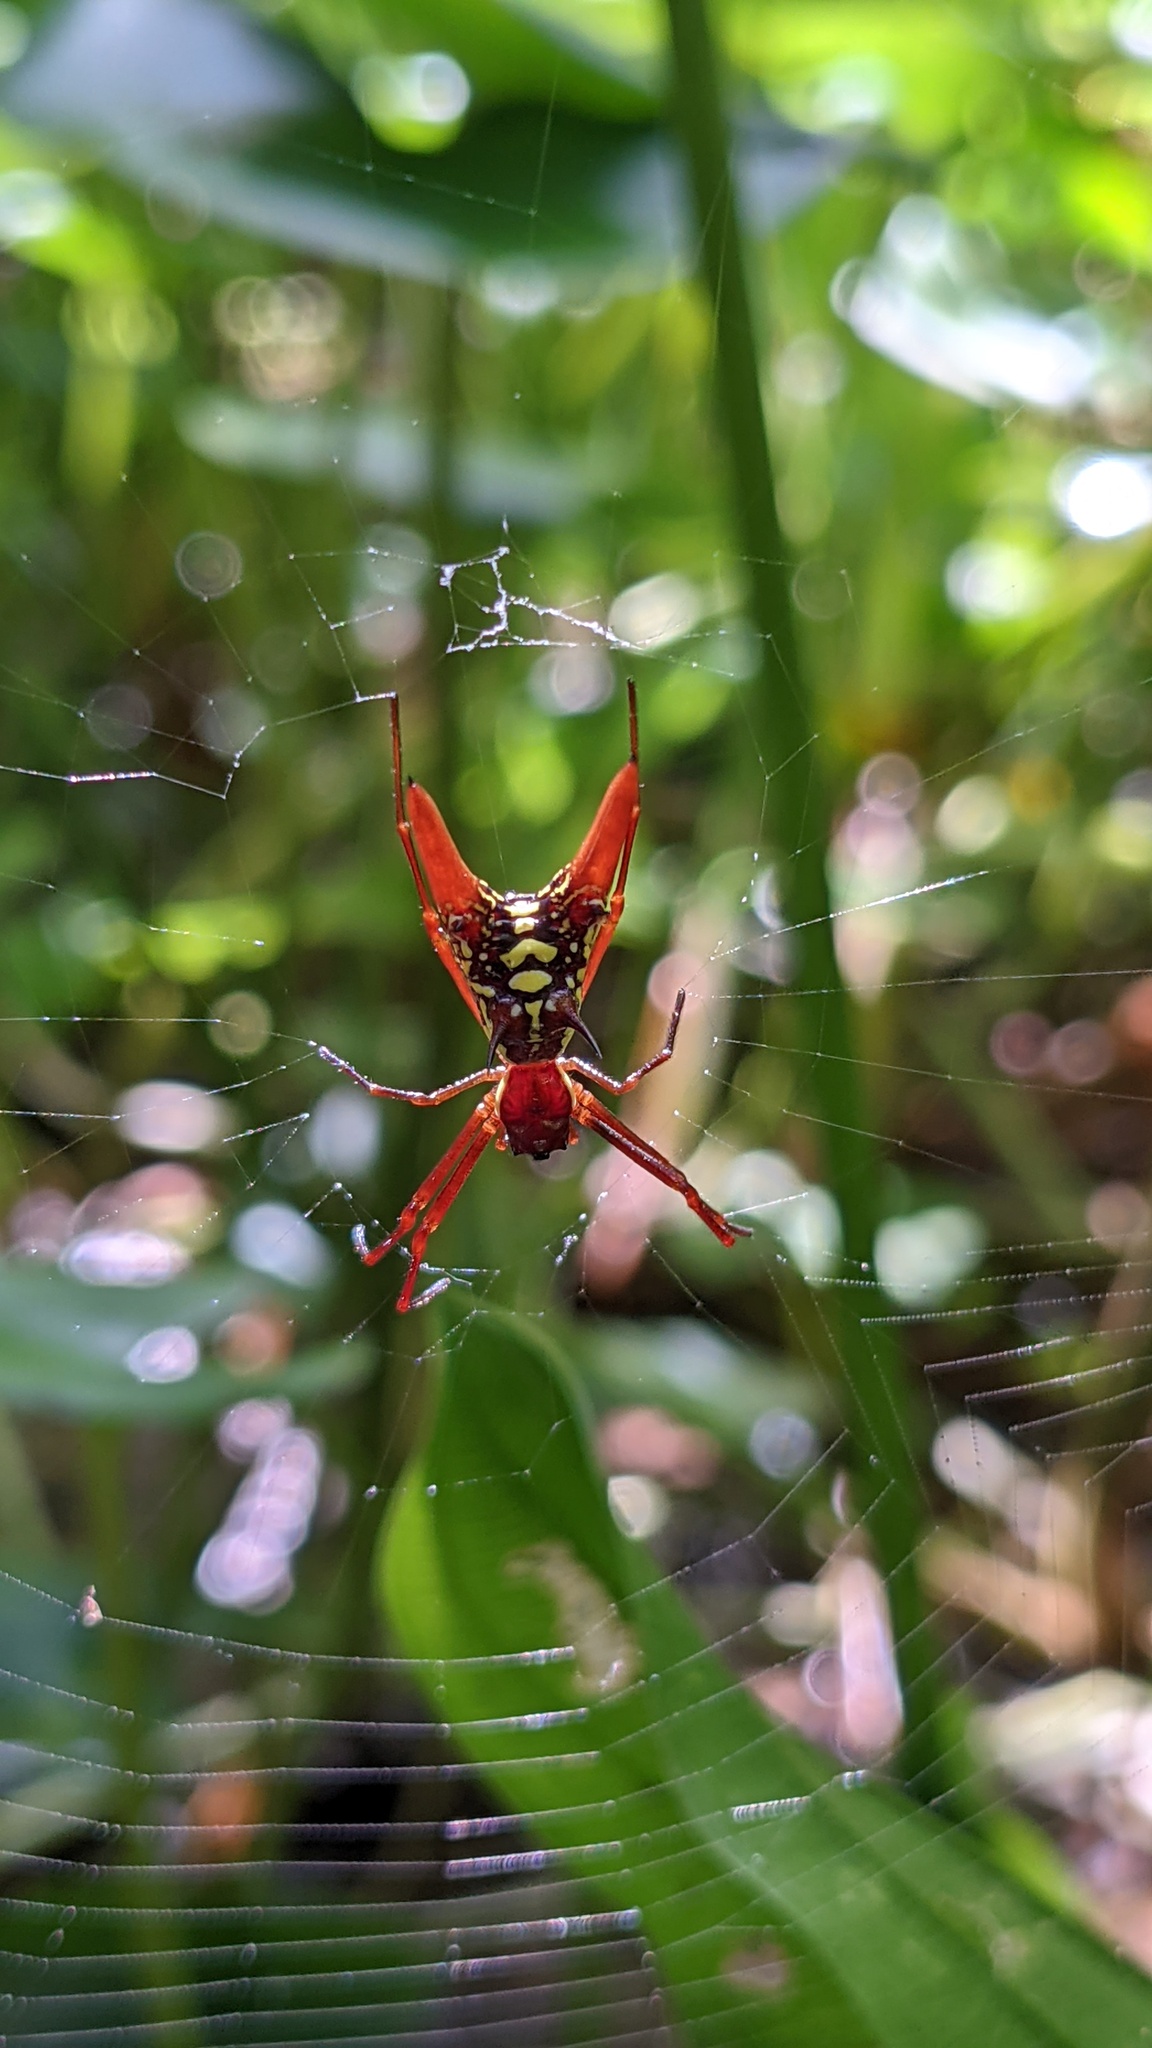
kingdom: Animalia
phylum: Arthropoda
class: Arachnida
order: Araneae
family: Araneidae
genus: Micrathena
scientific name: Micrathena sexspinosa
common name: Orb weavers
